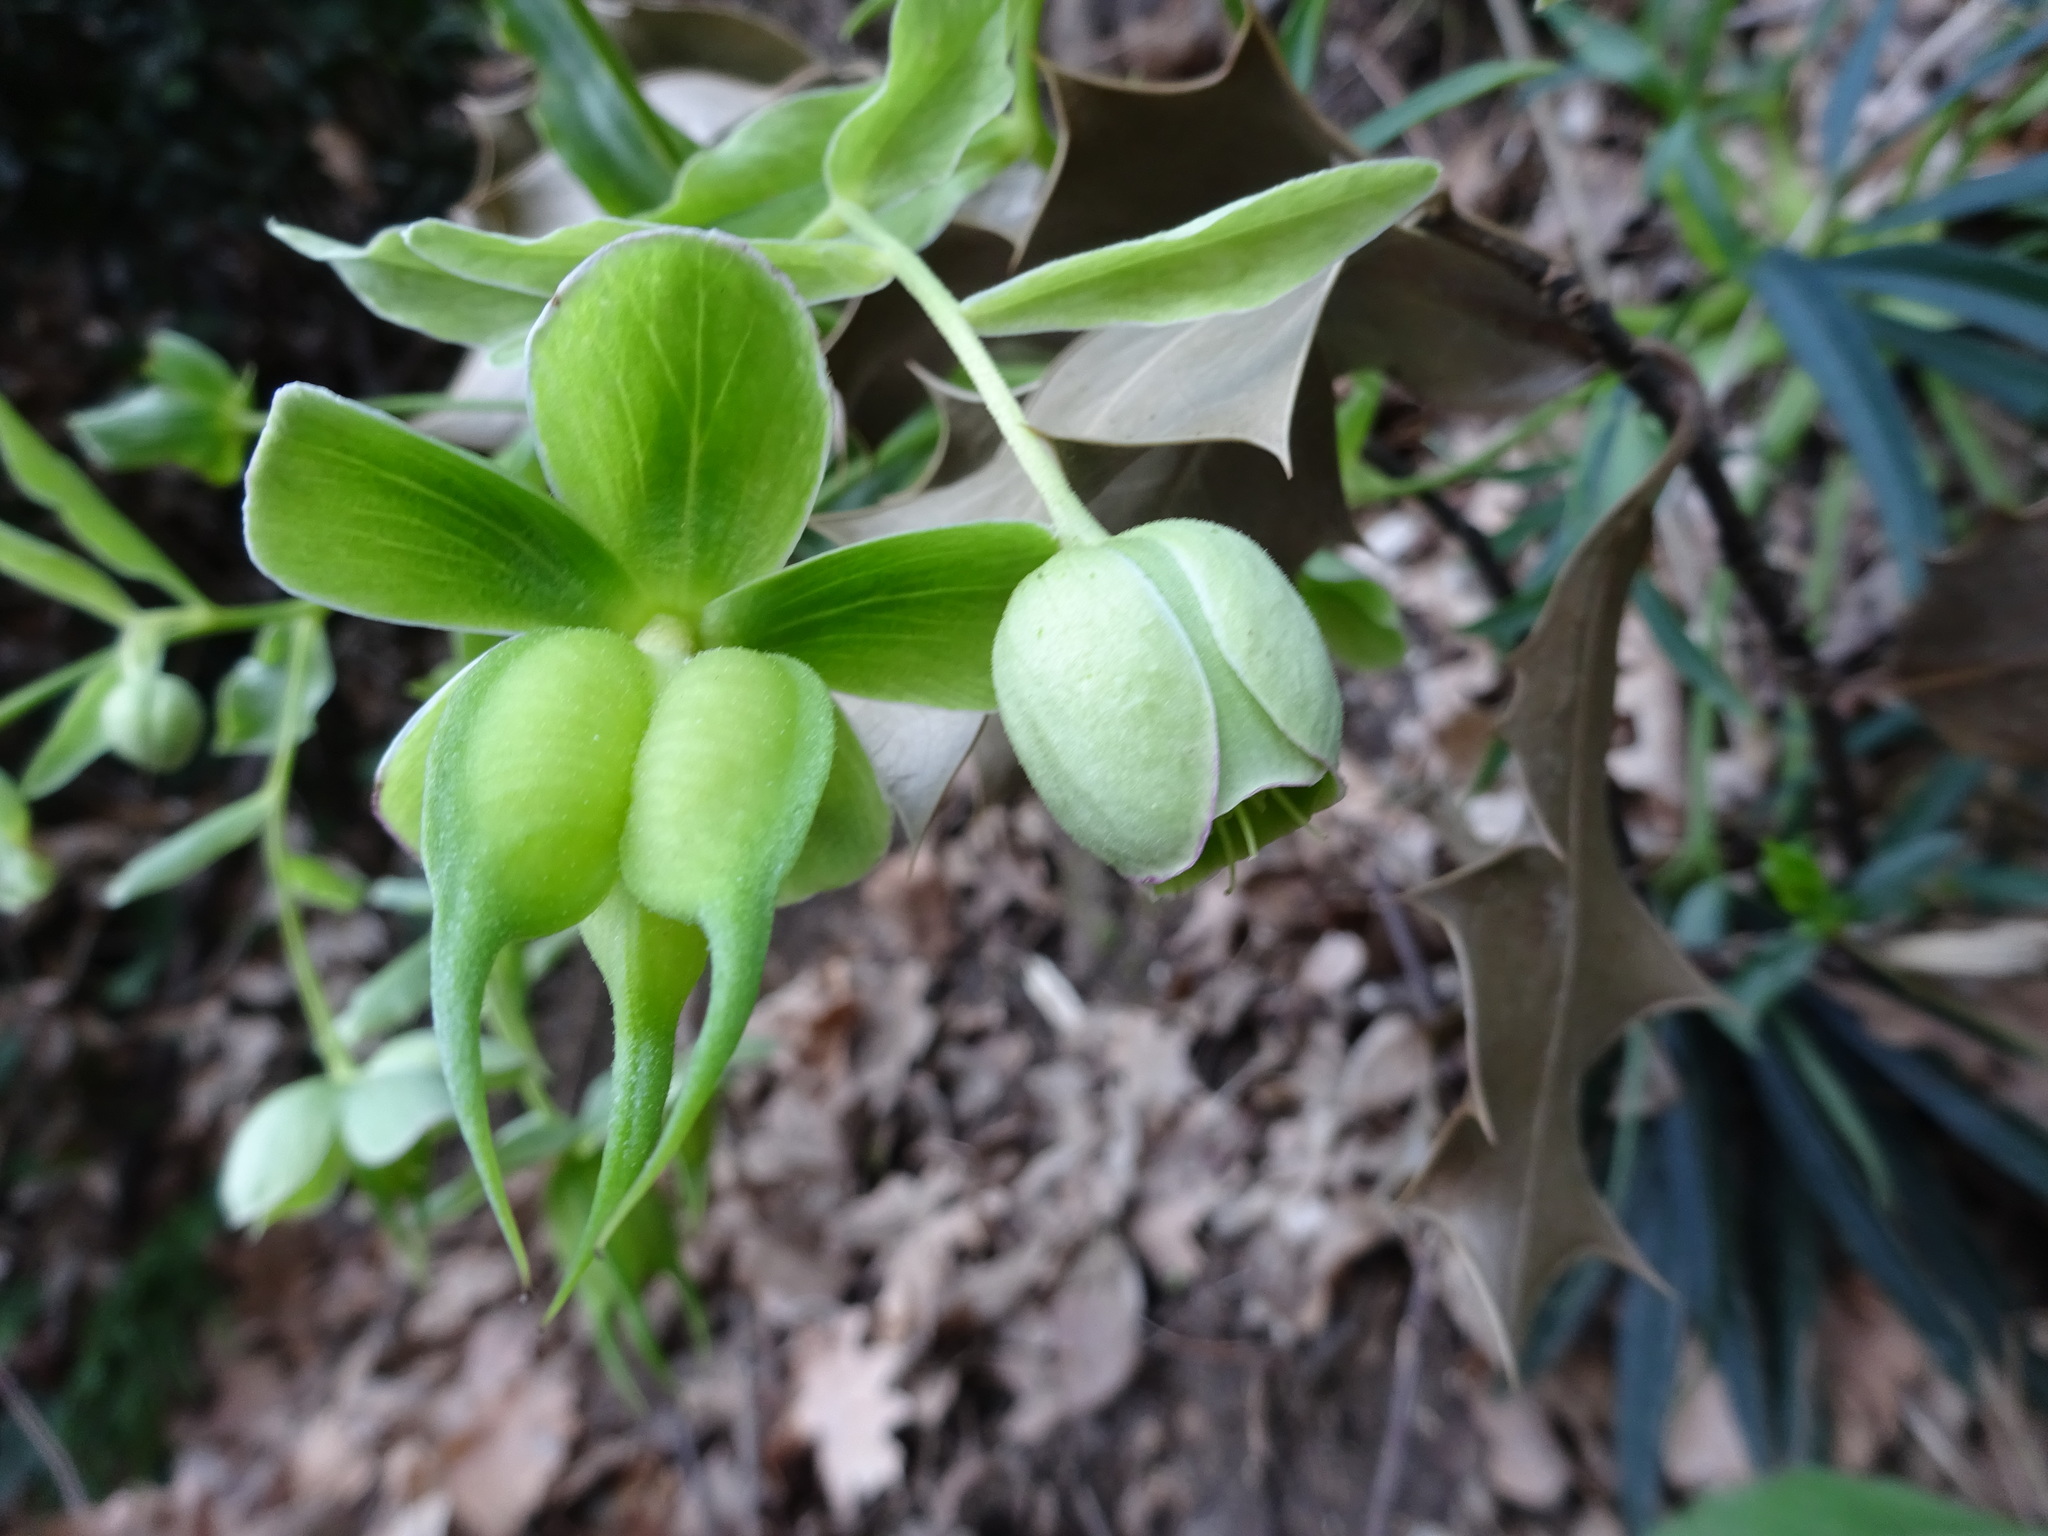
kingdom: Plantae
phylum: Tracheophyta
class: Magnoliopsida
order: Ranunculales
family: Ranunculaceae
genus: Helleborus
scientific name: Helleborus foetidus
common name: Stinking hellebore
